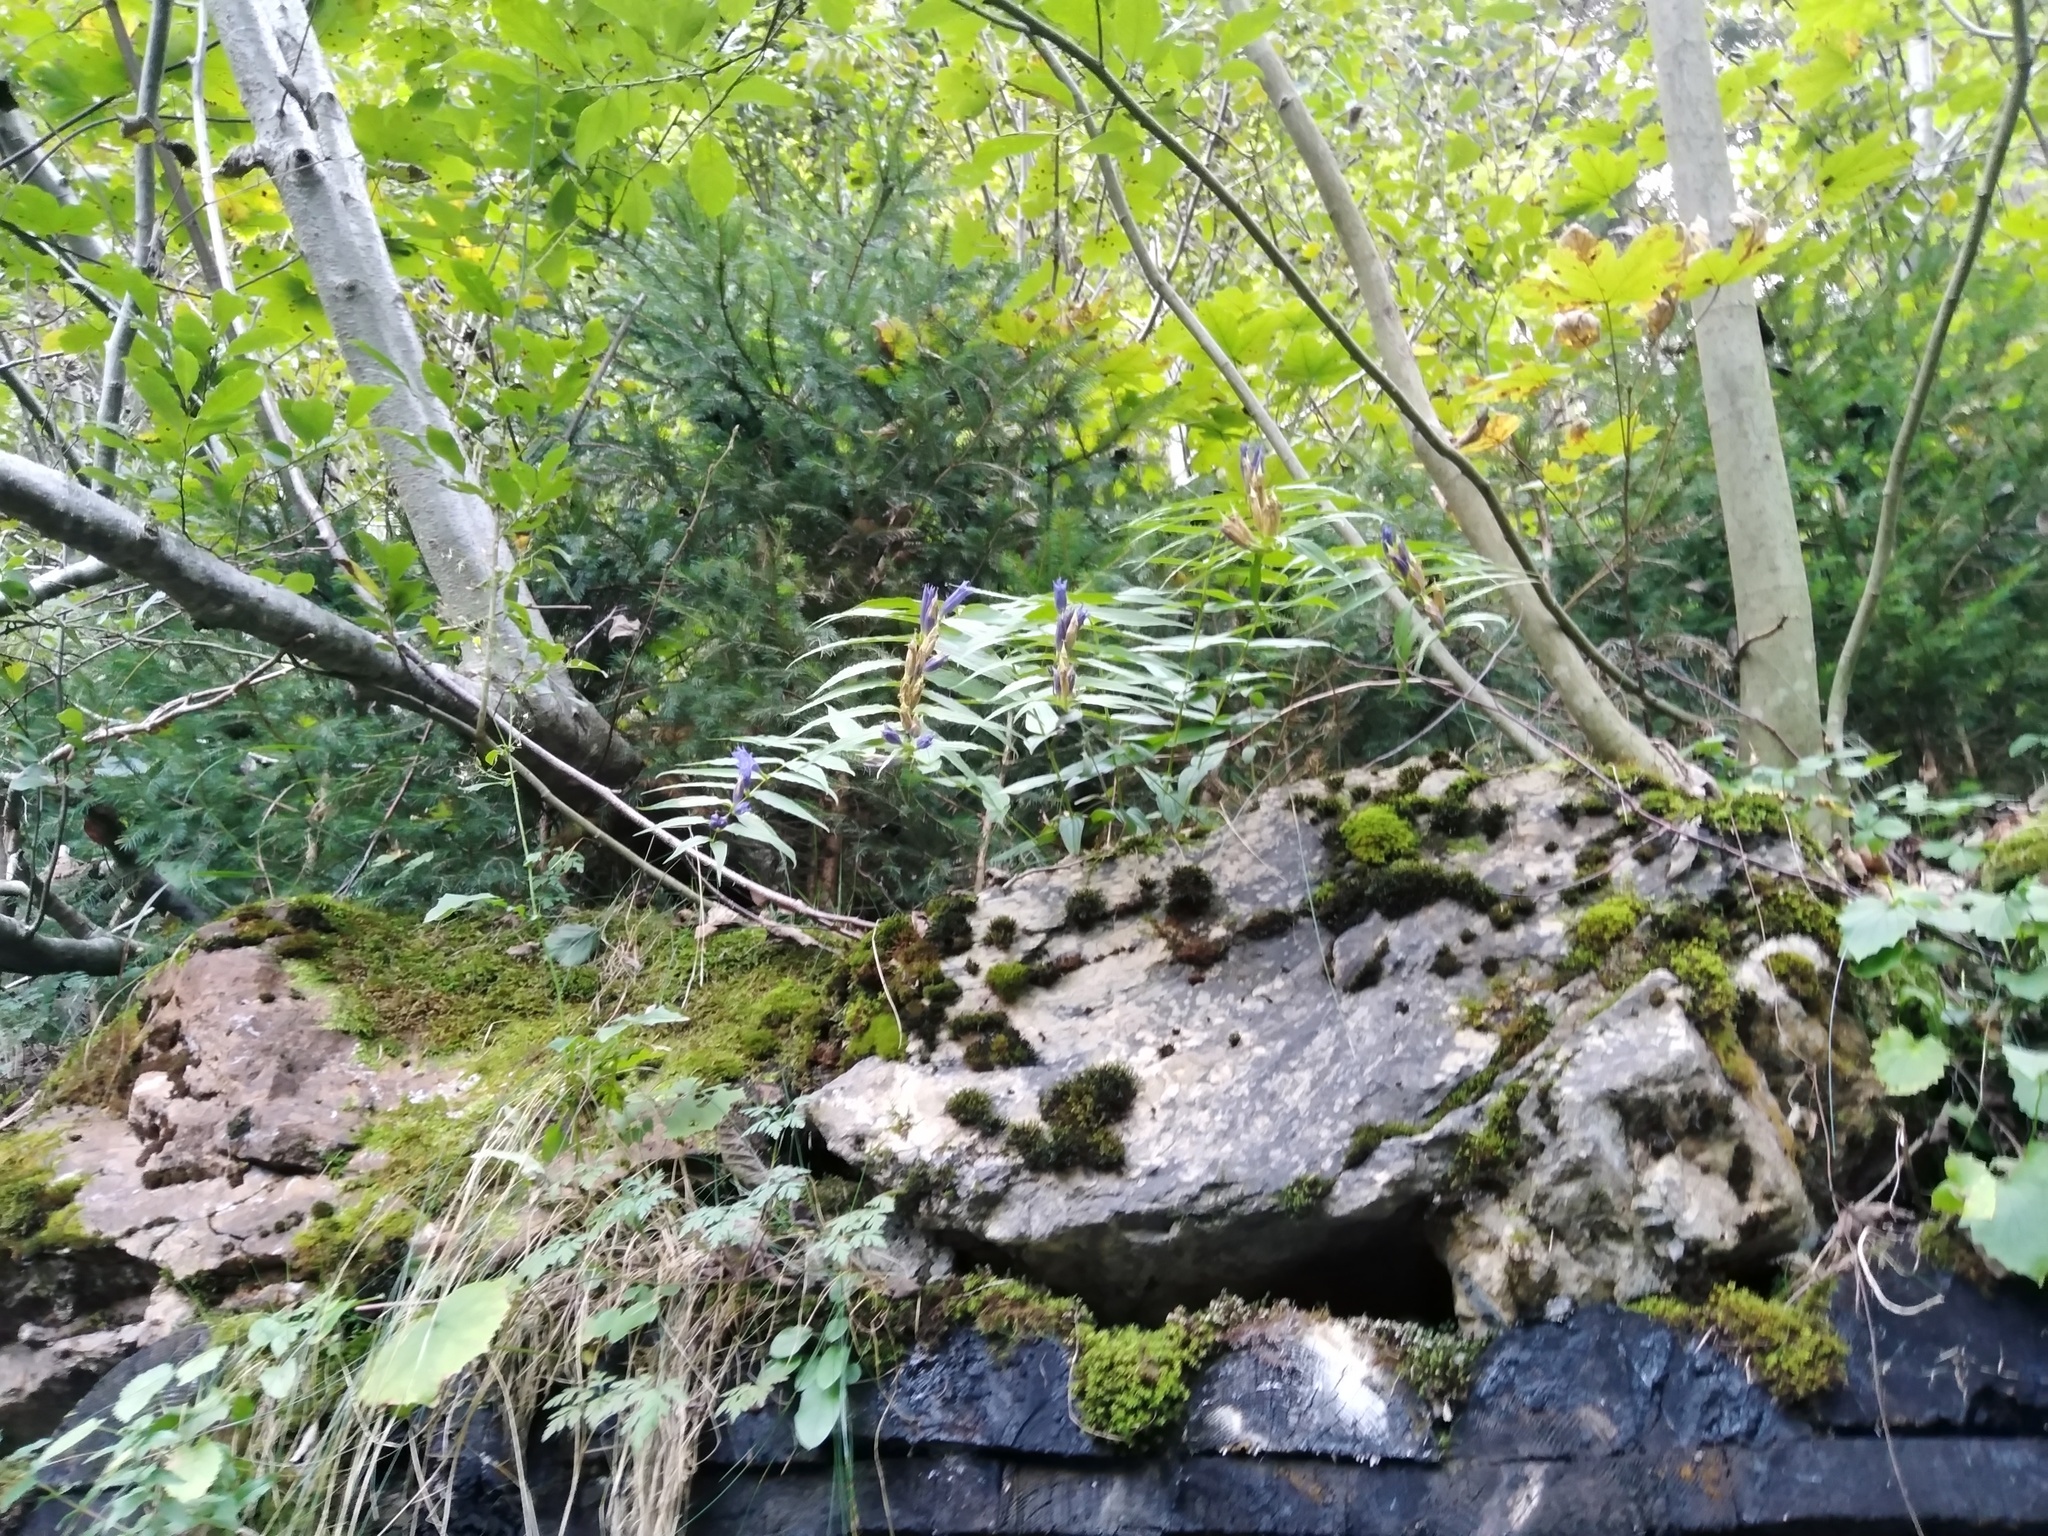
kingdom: Plantae
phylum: Tracheophyta
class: Magnoliopsida
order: Gentianales
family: Gentianaceae
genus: Gentiana
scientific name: Gentiana asclepiadea
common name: Willow gentian
